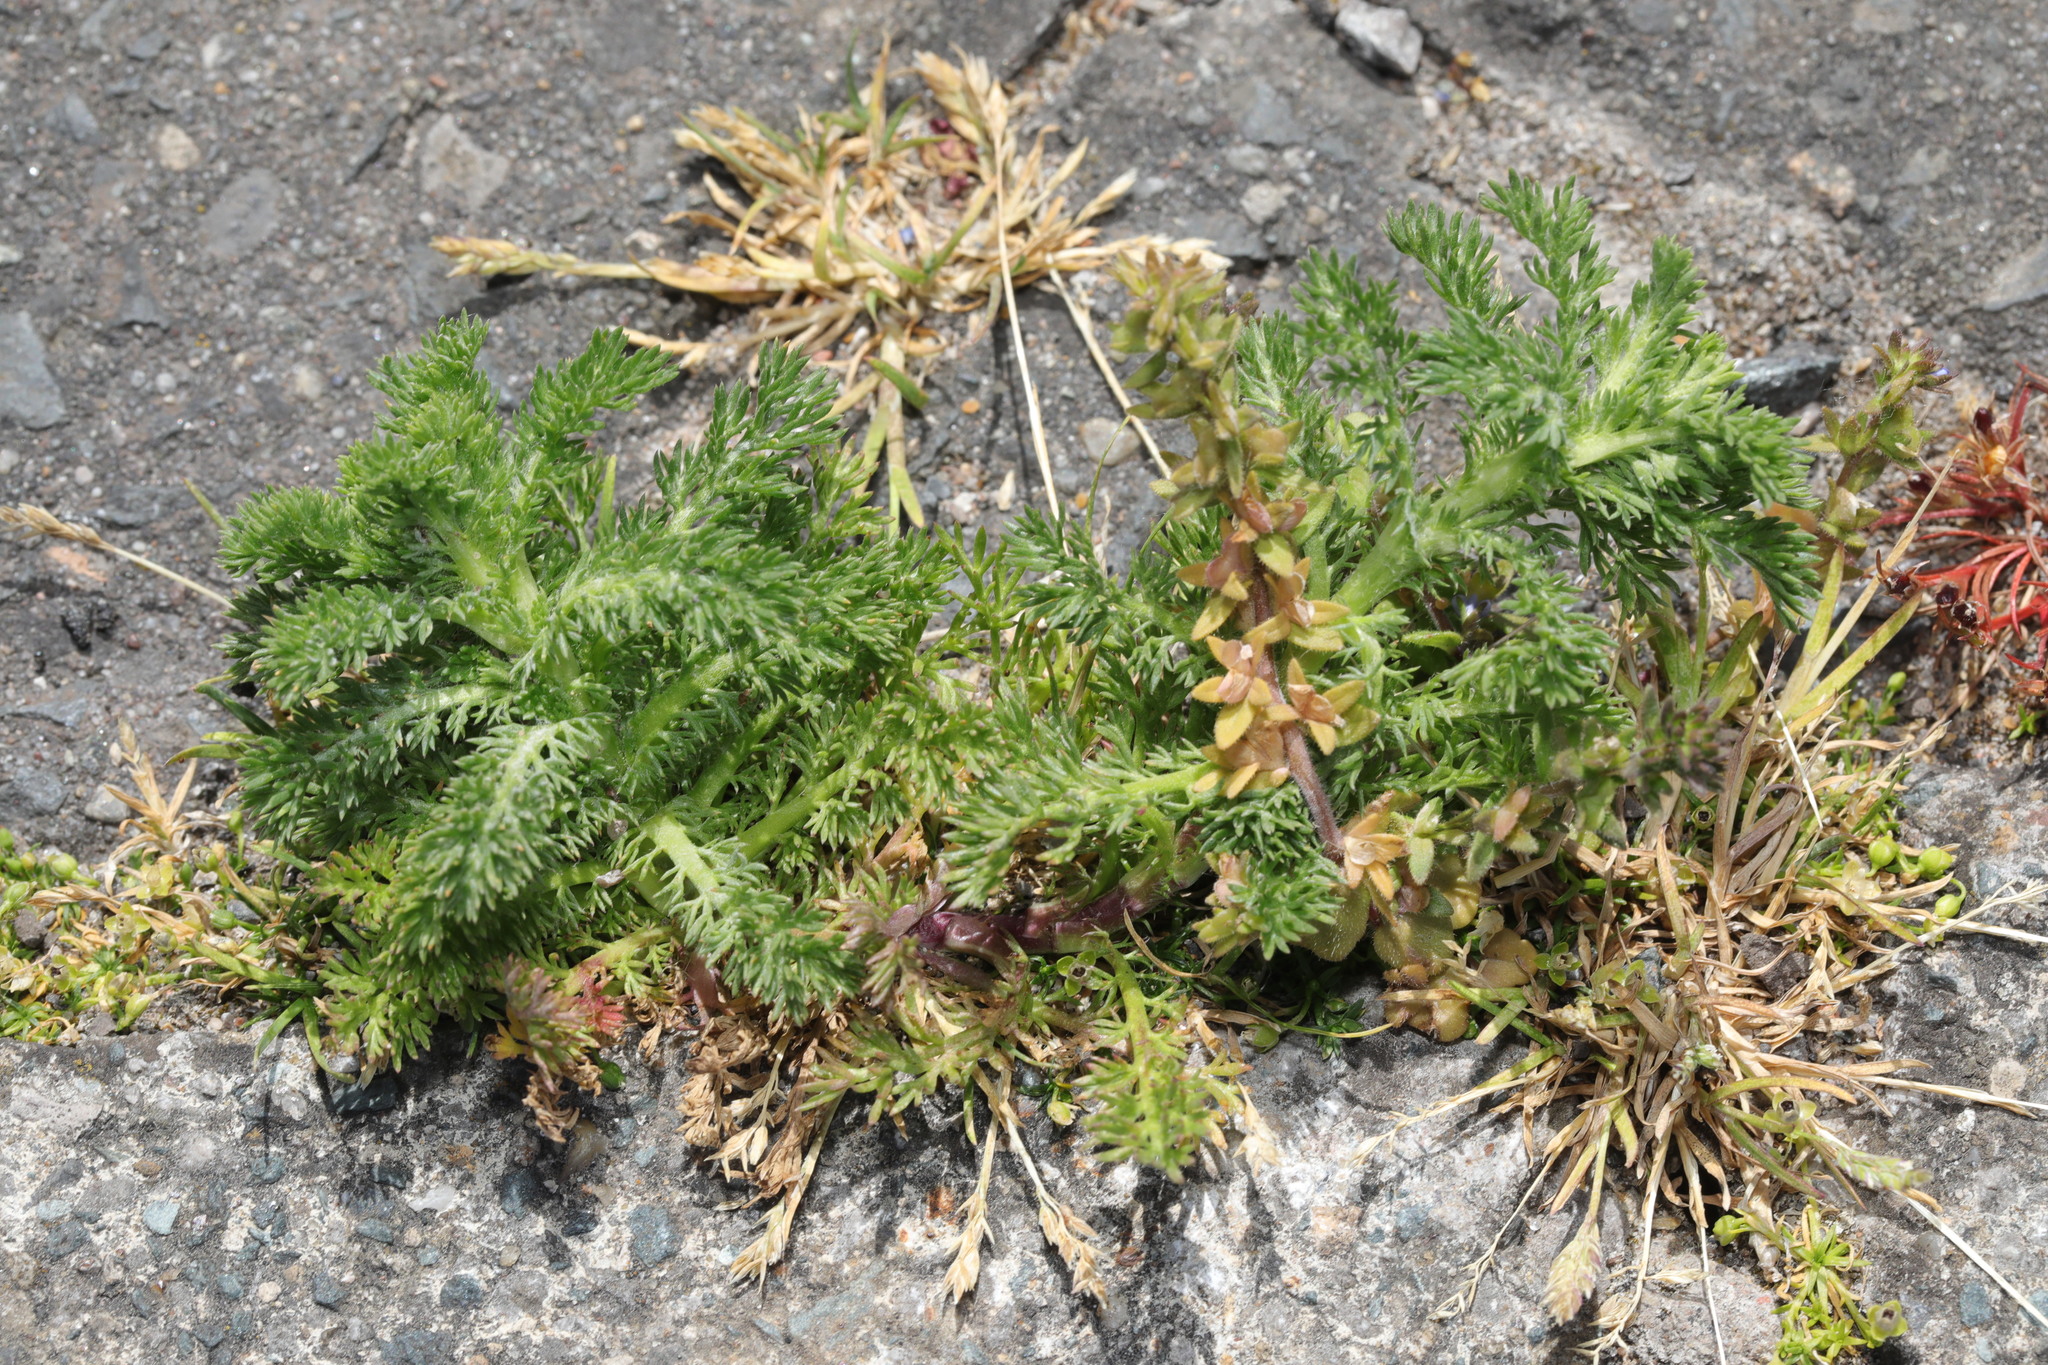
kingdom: Plantae
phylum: Tracheophyta
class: Magnoliopsida
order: Lamiales
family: Plantaginaceae
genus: Veronica
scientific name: Veronica arvensis
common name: Corn speedwell
